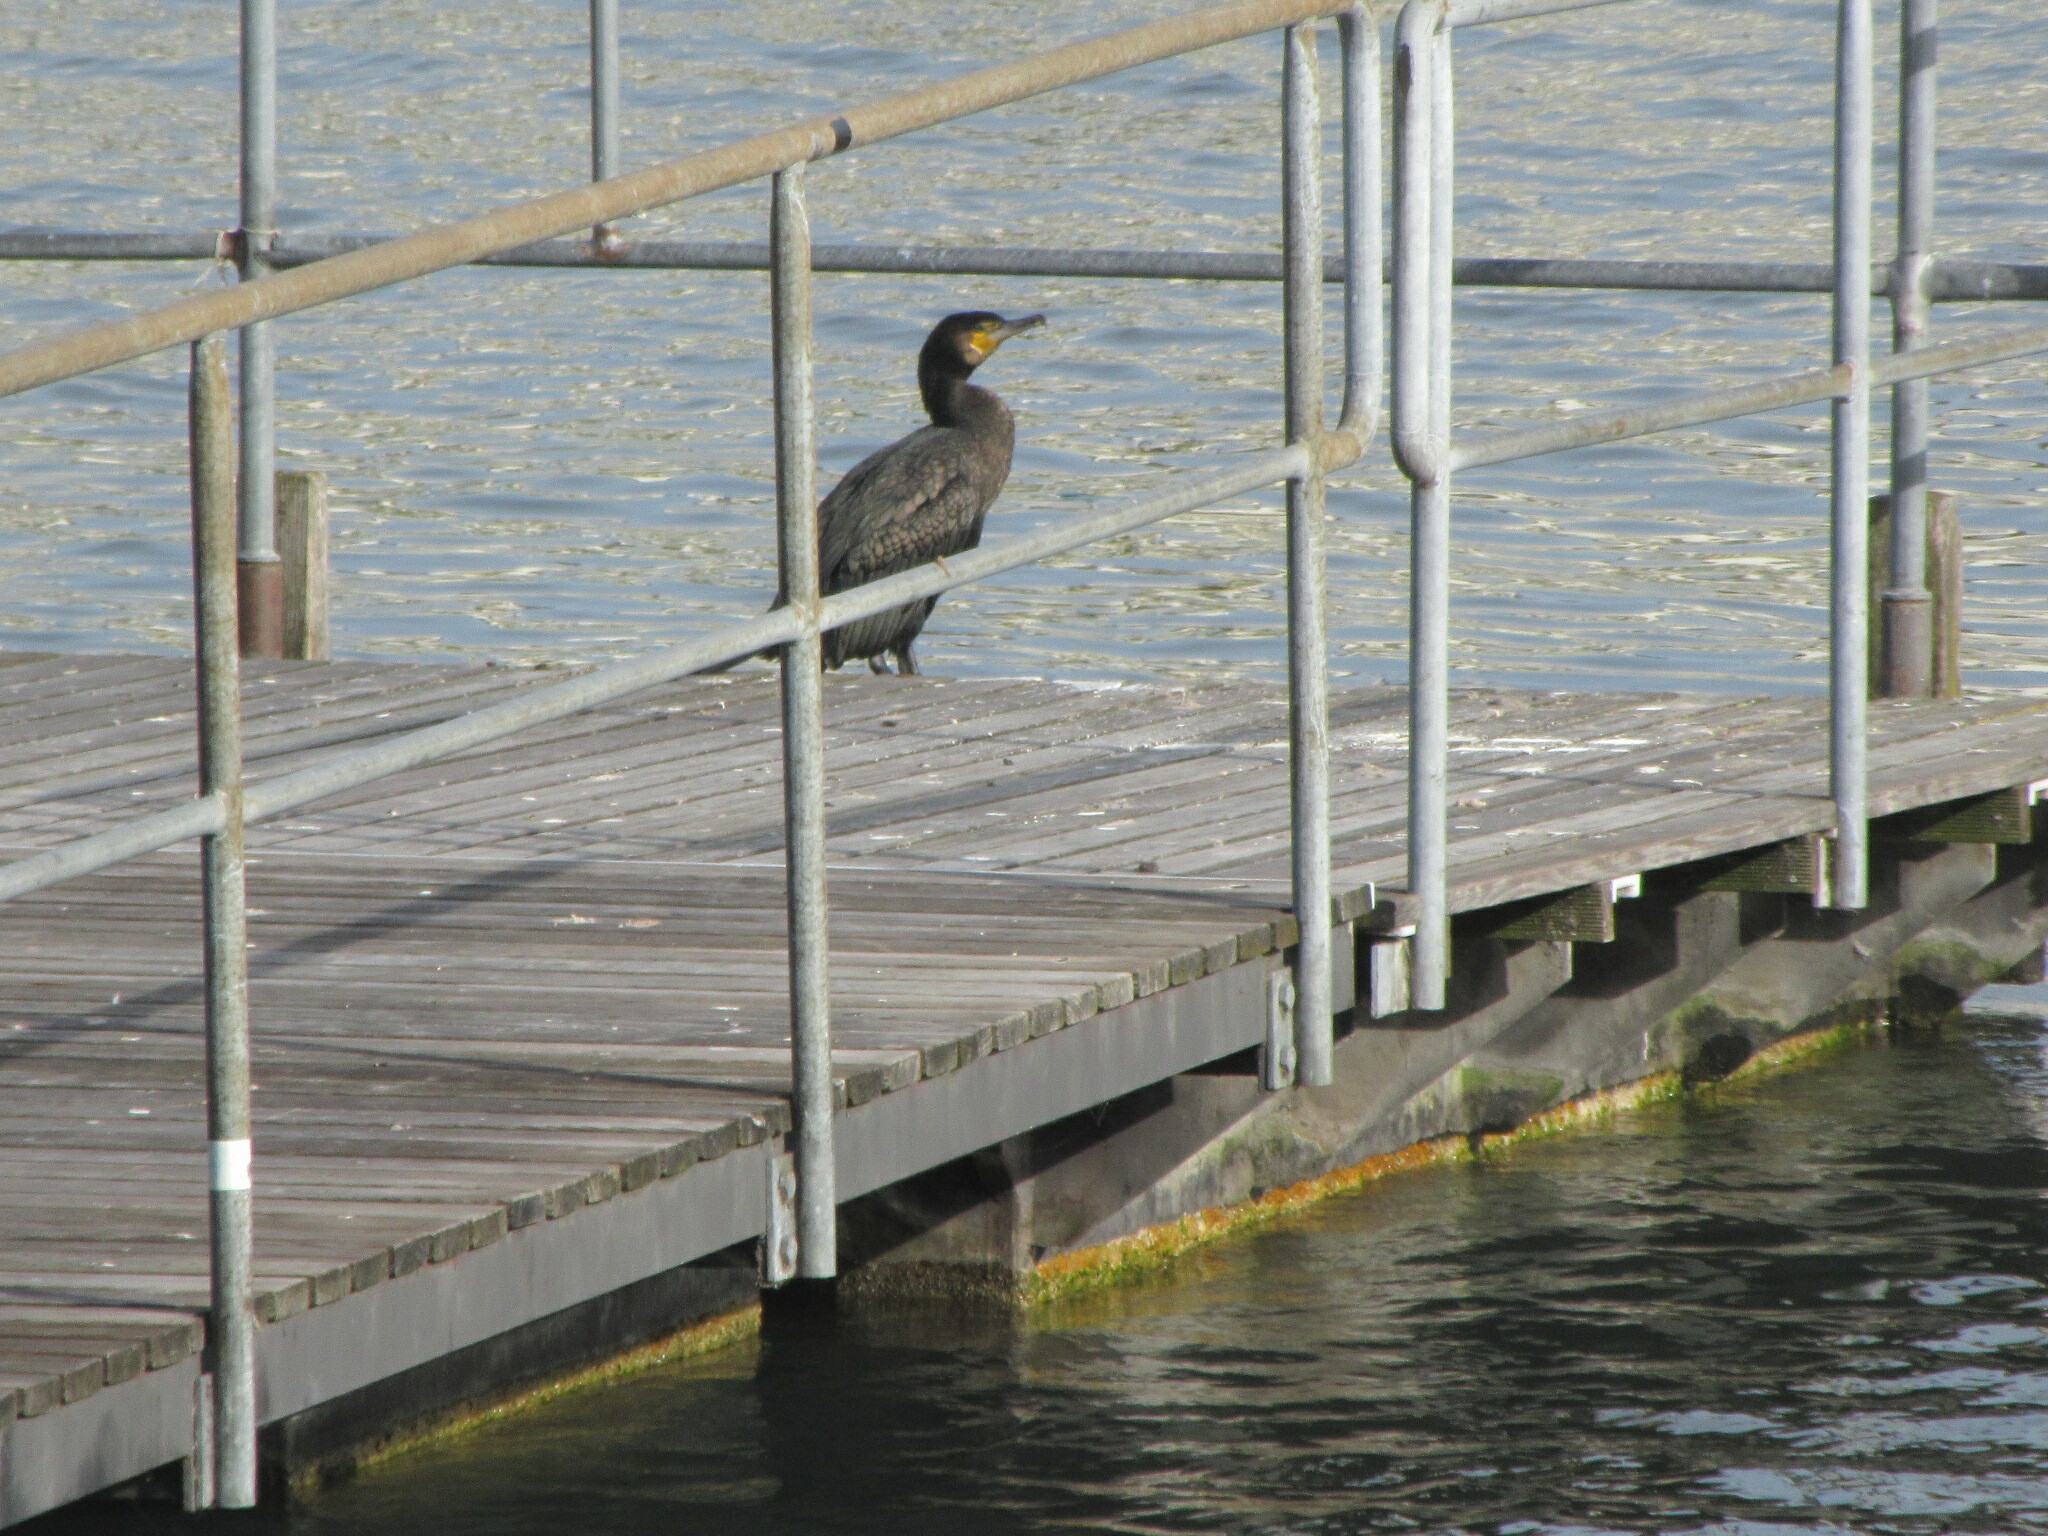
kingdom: Animalia
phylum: Chordata
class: Aves
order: Suliformes
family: Phalacrocoracidae
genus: Phalacrocorax
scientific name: Phalacrocorax carbo
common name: Great cormorant
